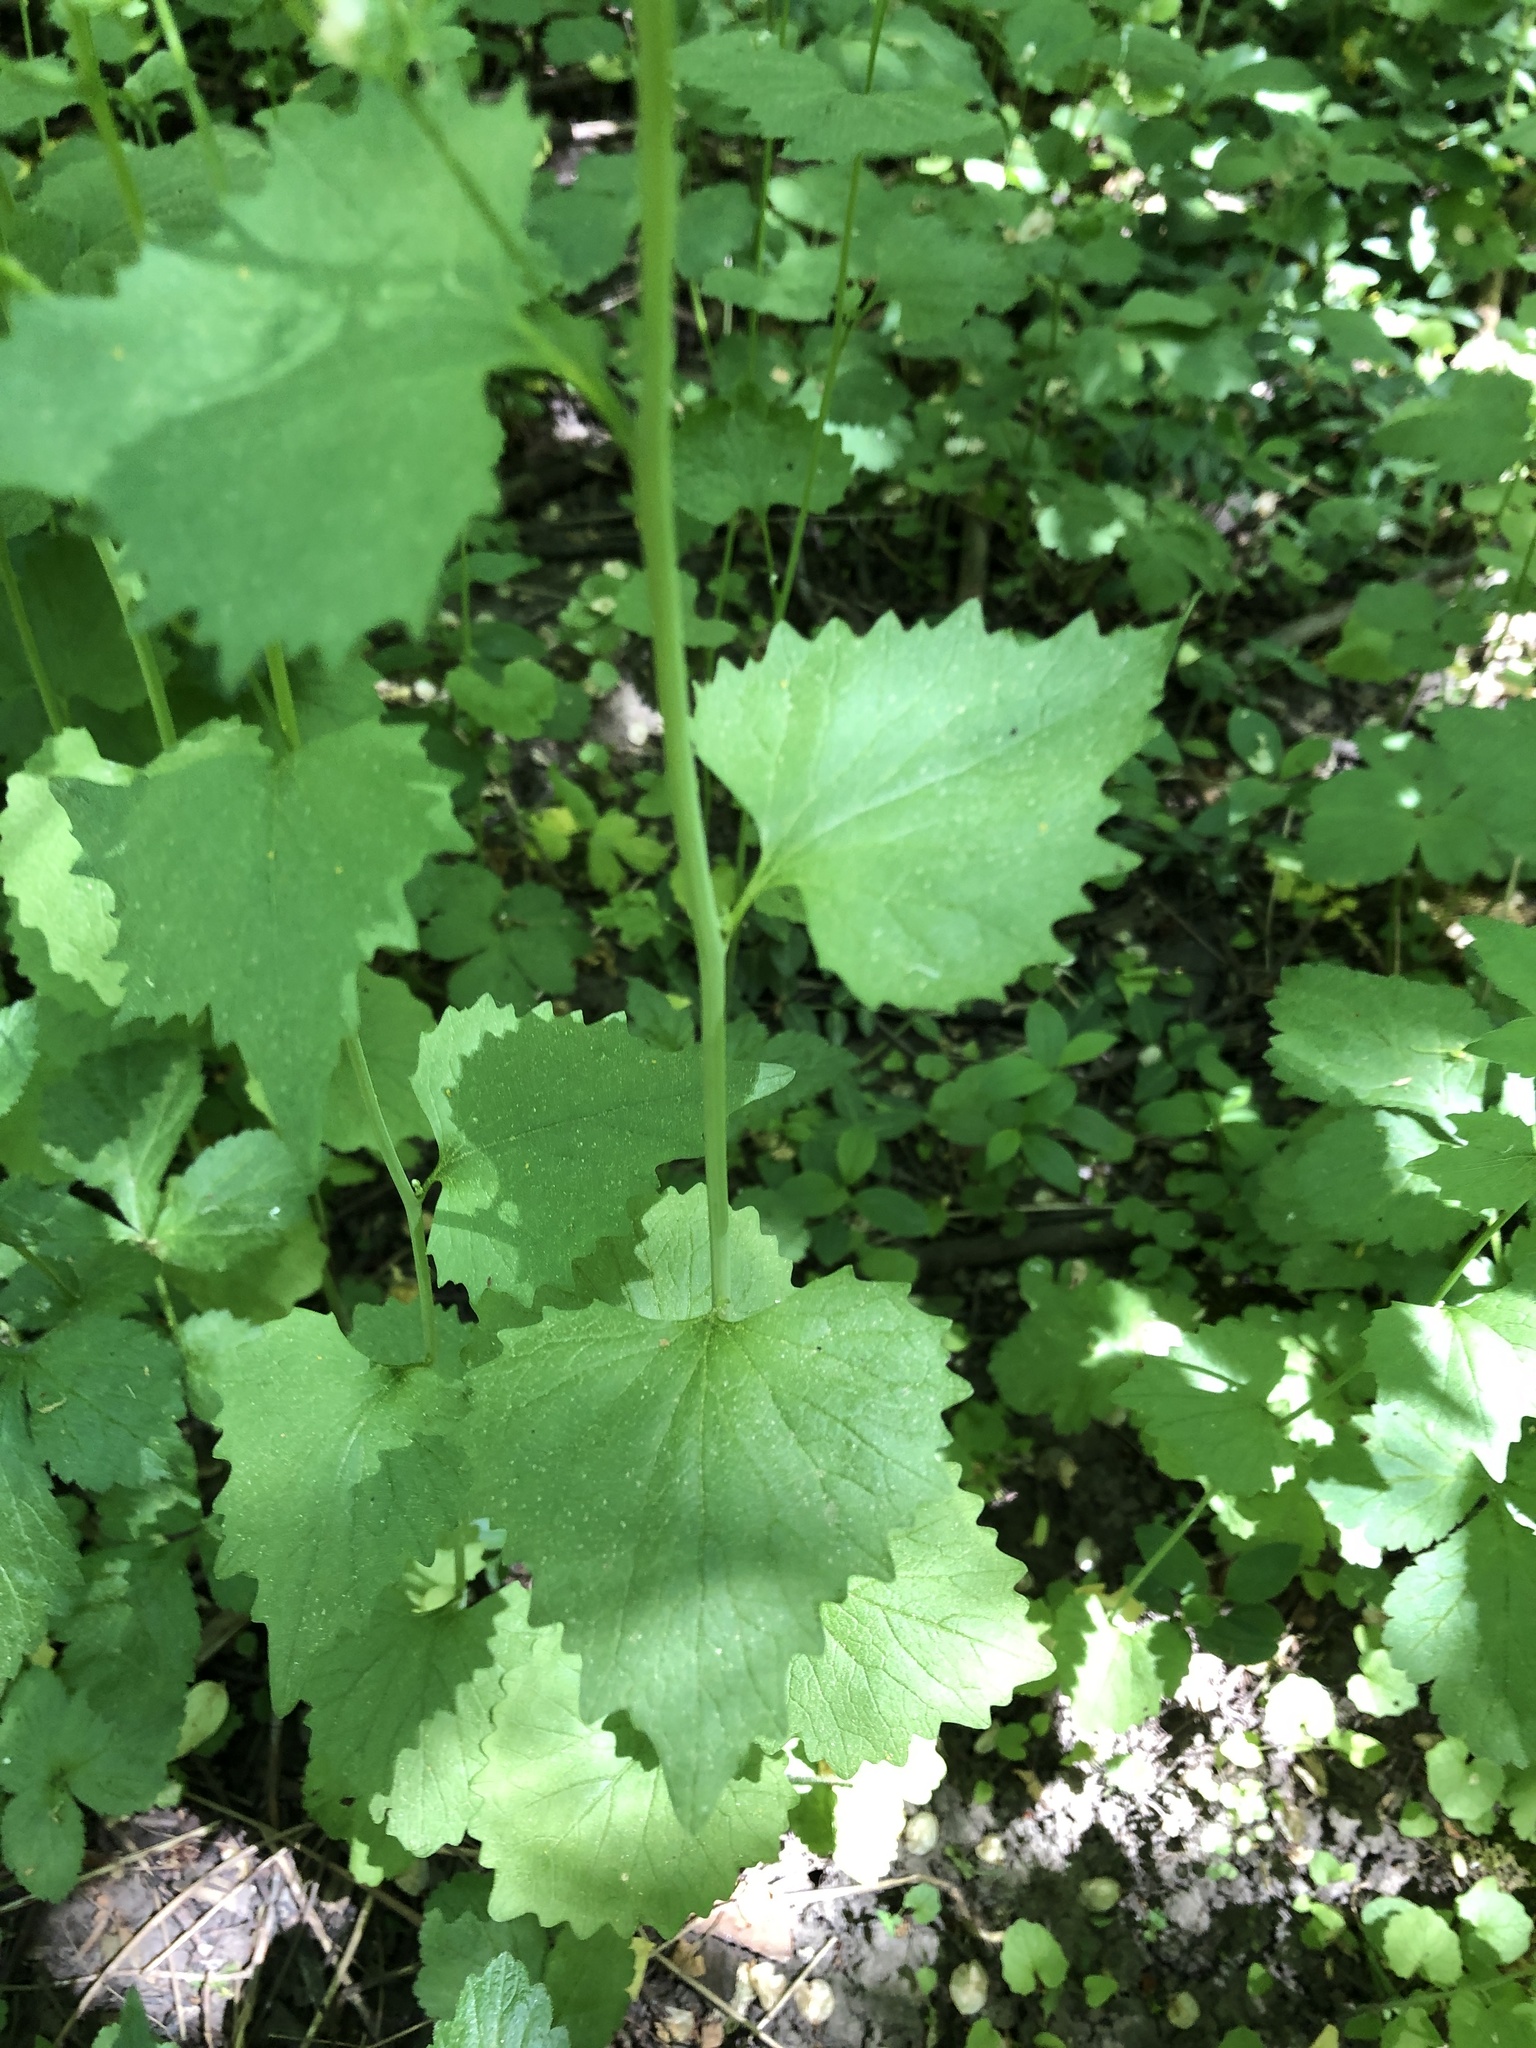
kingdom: Plantae
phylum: Tracheophyta
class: Magnoliopsida
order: Brassicales
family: Brassicaceae
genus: Alliaria
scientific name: Alliaria petiolata
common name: Garlic mustard
